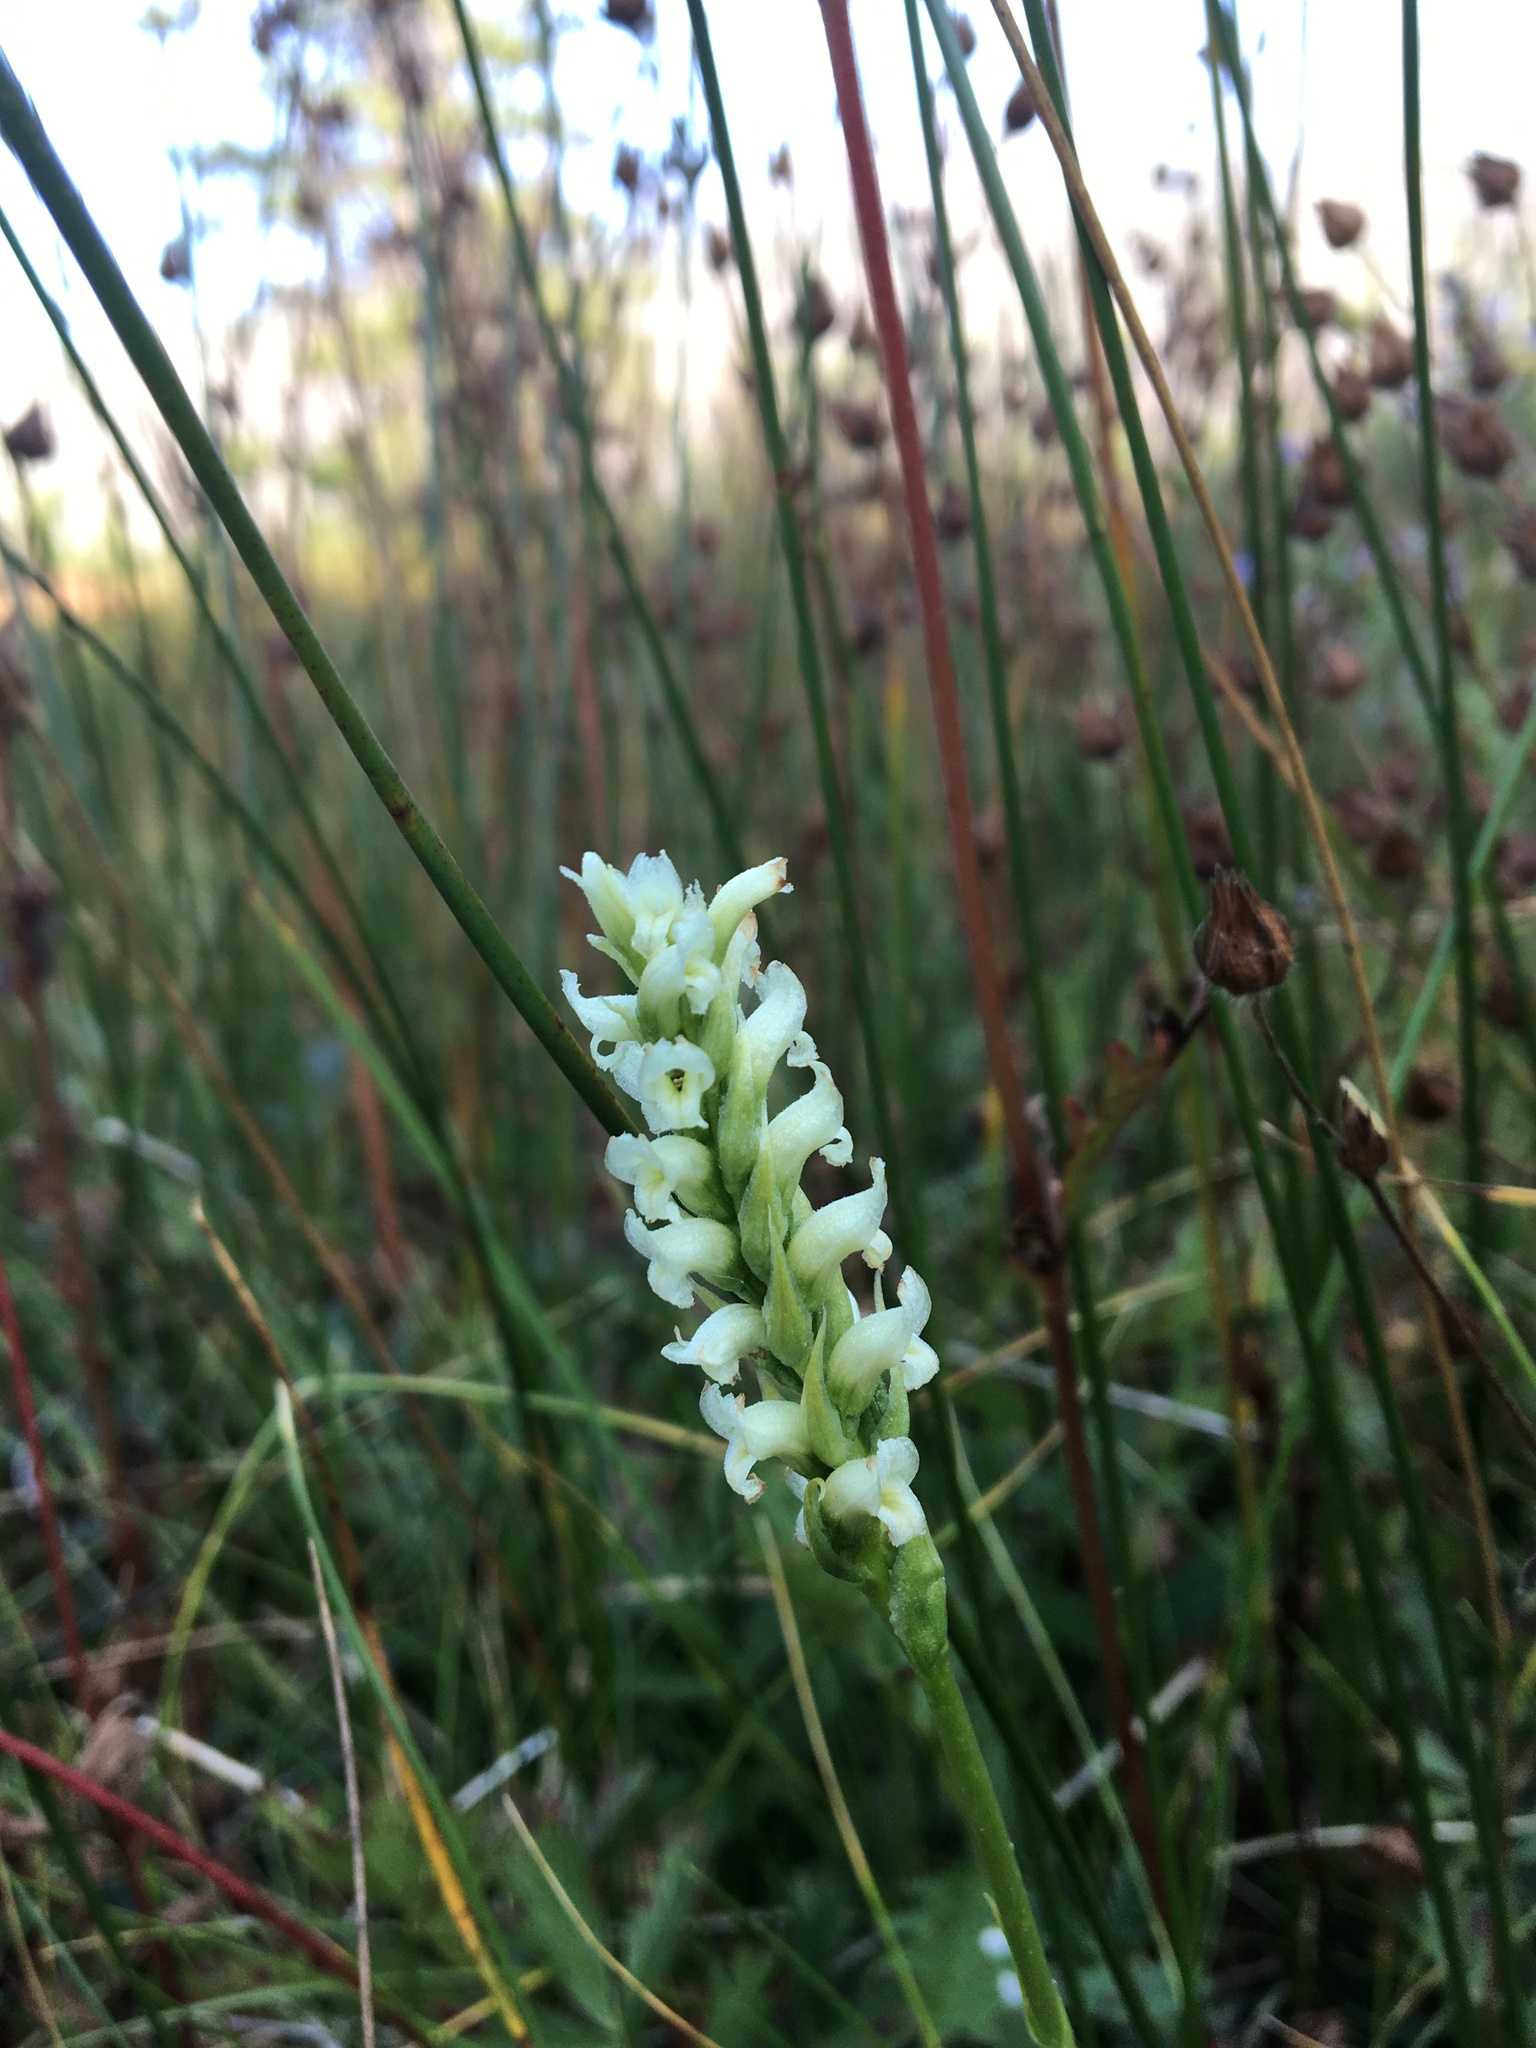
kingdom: Plantae
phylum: Tracheophyta
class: Liliopsida
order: Asparagales
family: Orchidaceae
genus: Spiranthes
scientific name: Spiranthes romanzoffiana
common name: Irish lady's-tresses
